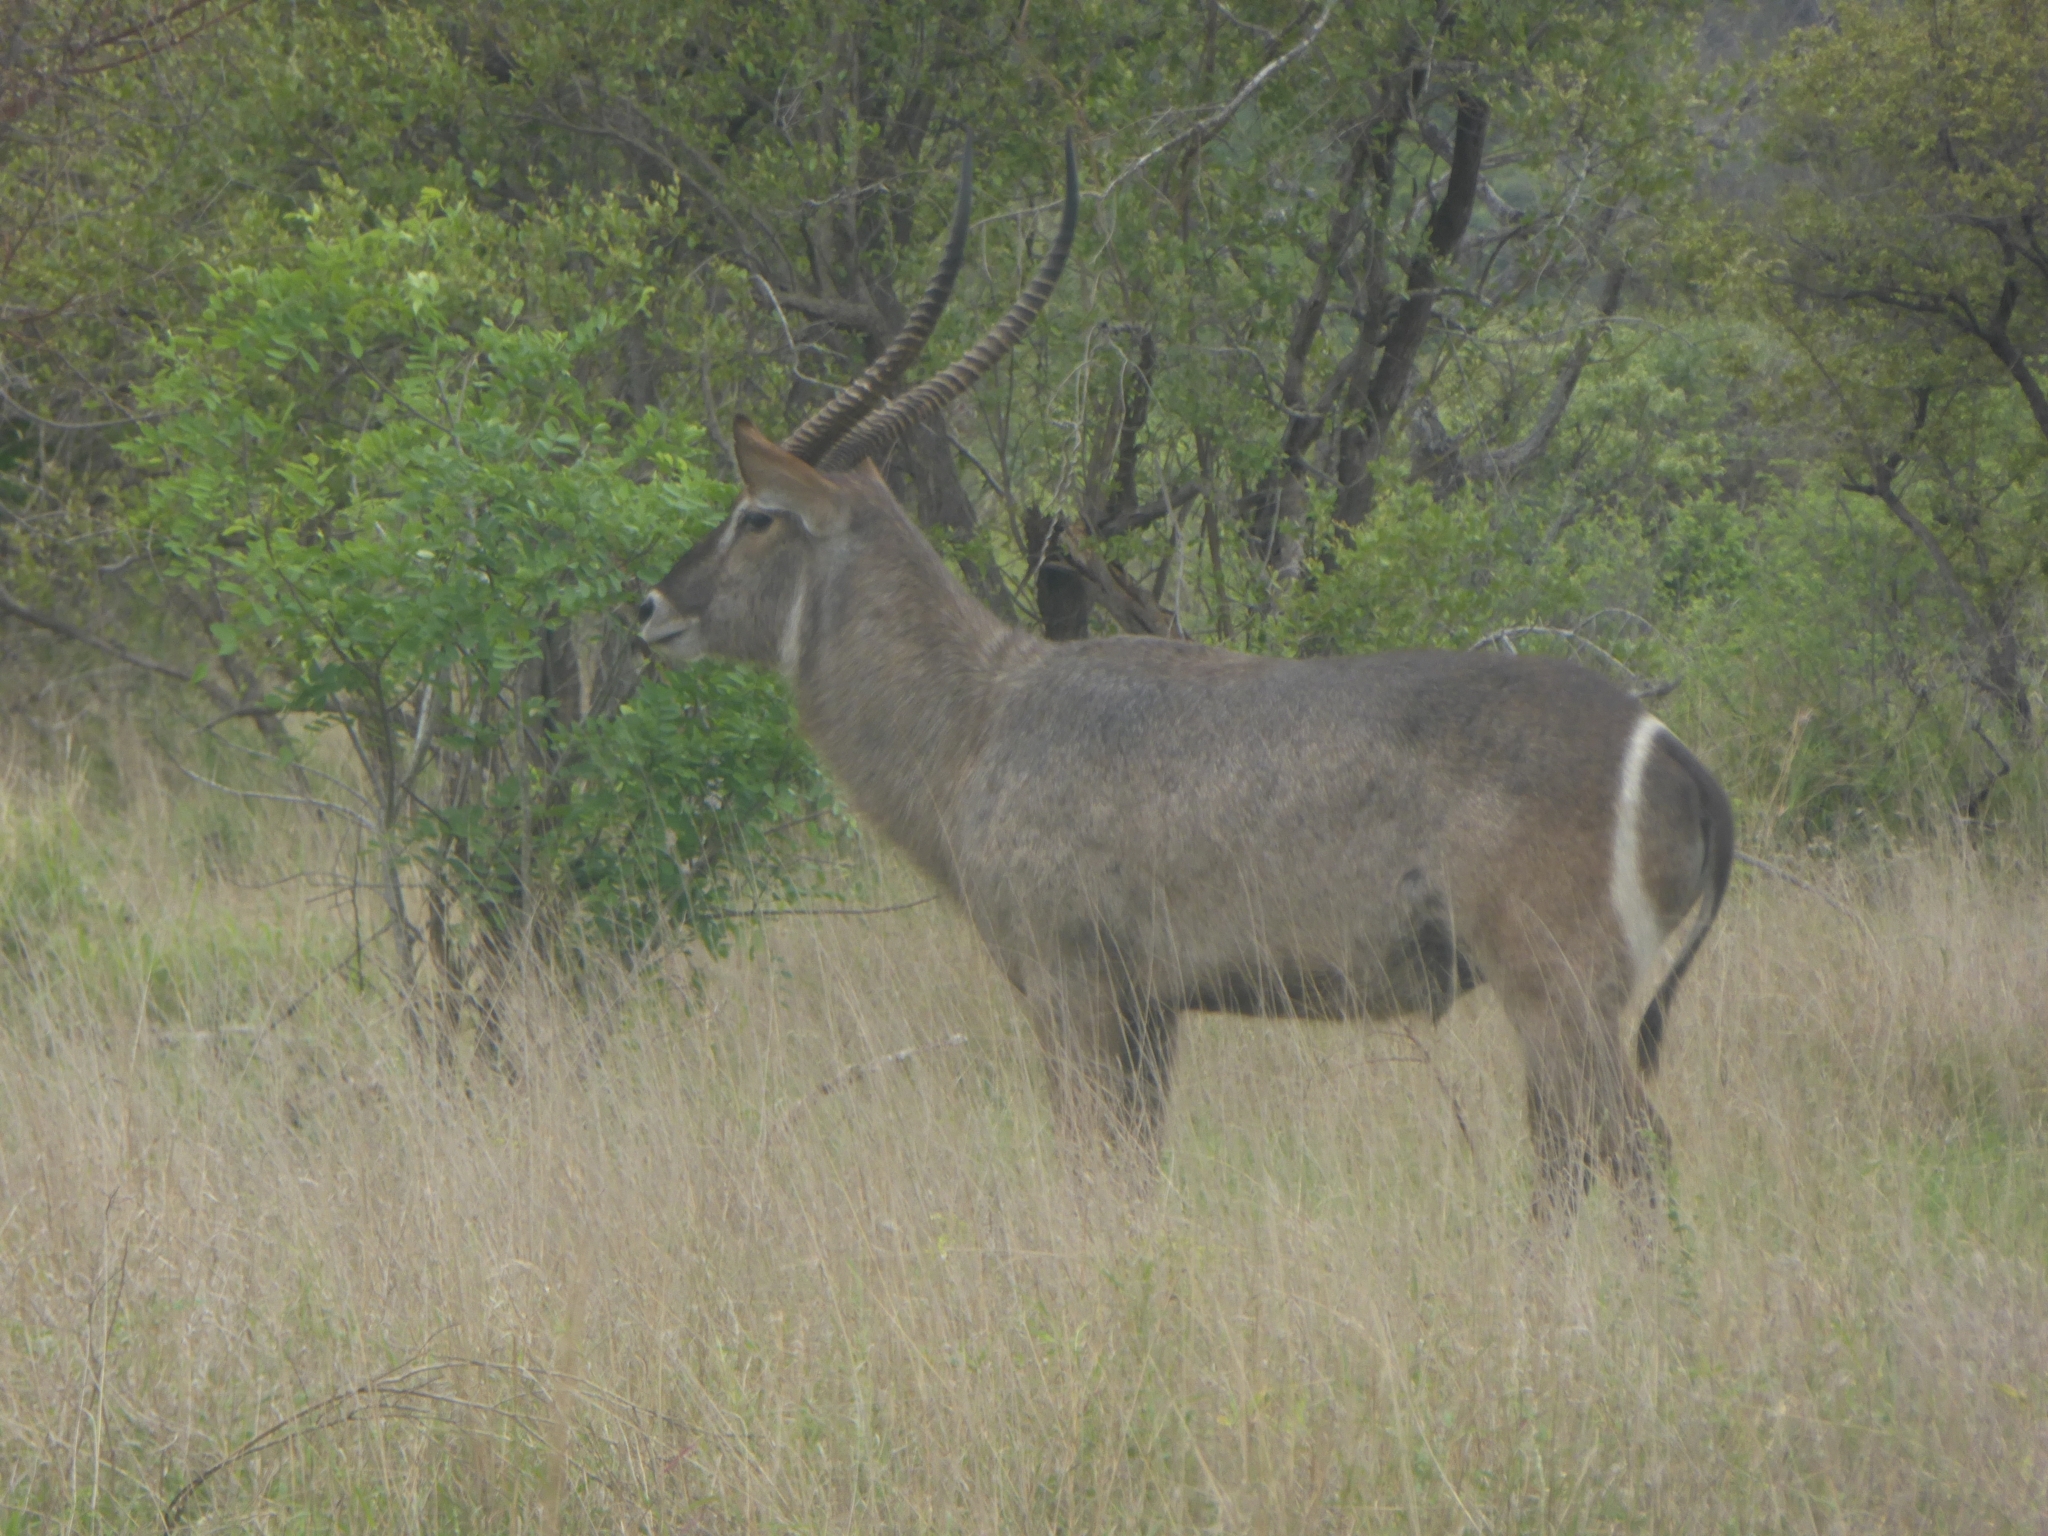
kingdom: Animalia
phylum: Chordata
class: Mammalia
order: Artiodactyla
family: Bovidae
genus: Kobus
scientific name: Kobus ellipsiprymnus
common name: Waterbuck
